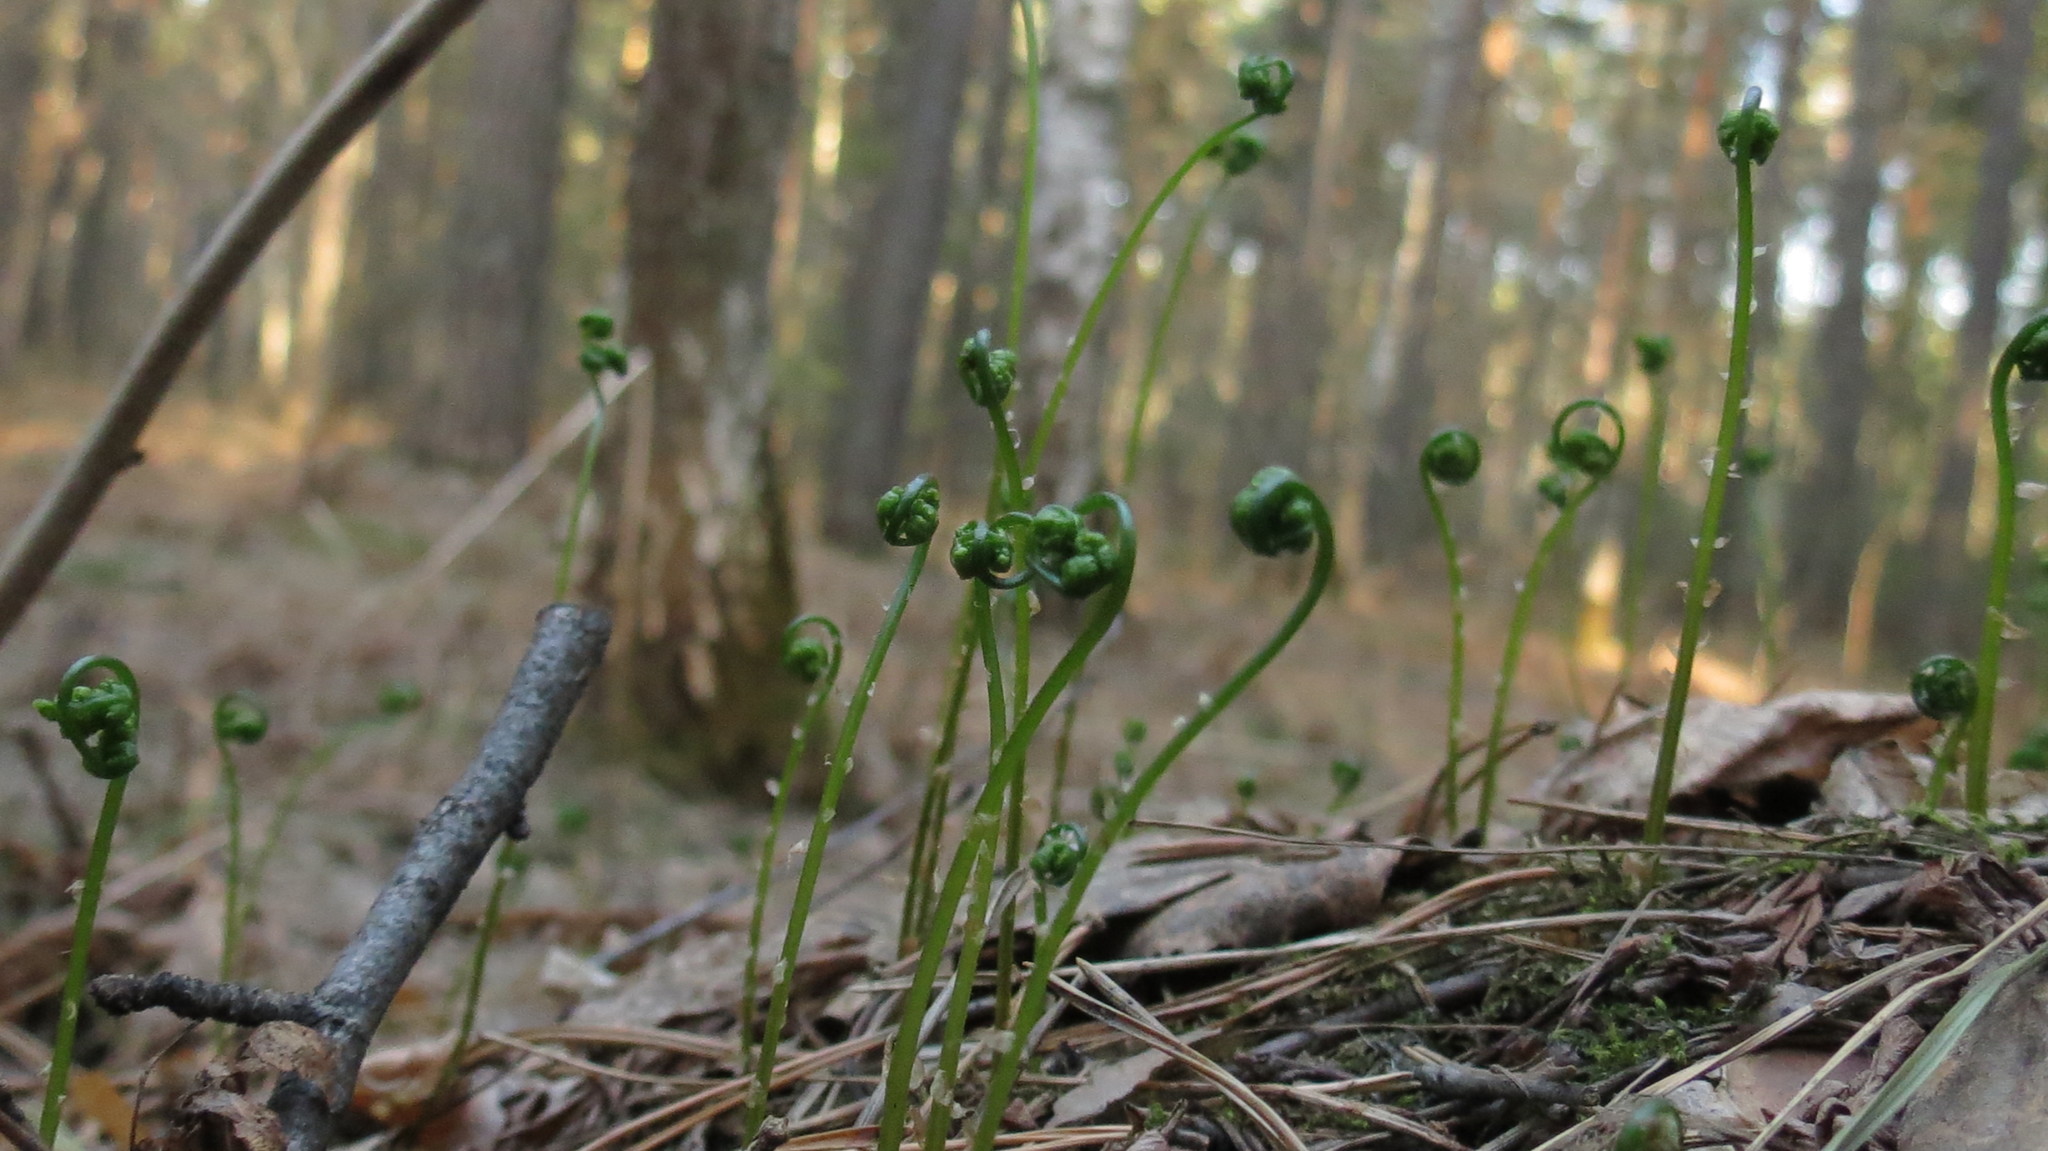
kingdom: Plantae
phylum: Tracheophyta
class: Polypodiopsida
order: Polypodiales
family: Dennstaedtiaceae
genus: Pteridium
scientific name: Pteridium aquilinum
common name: Bracken
